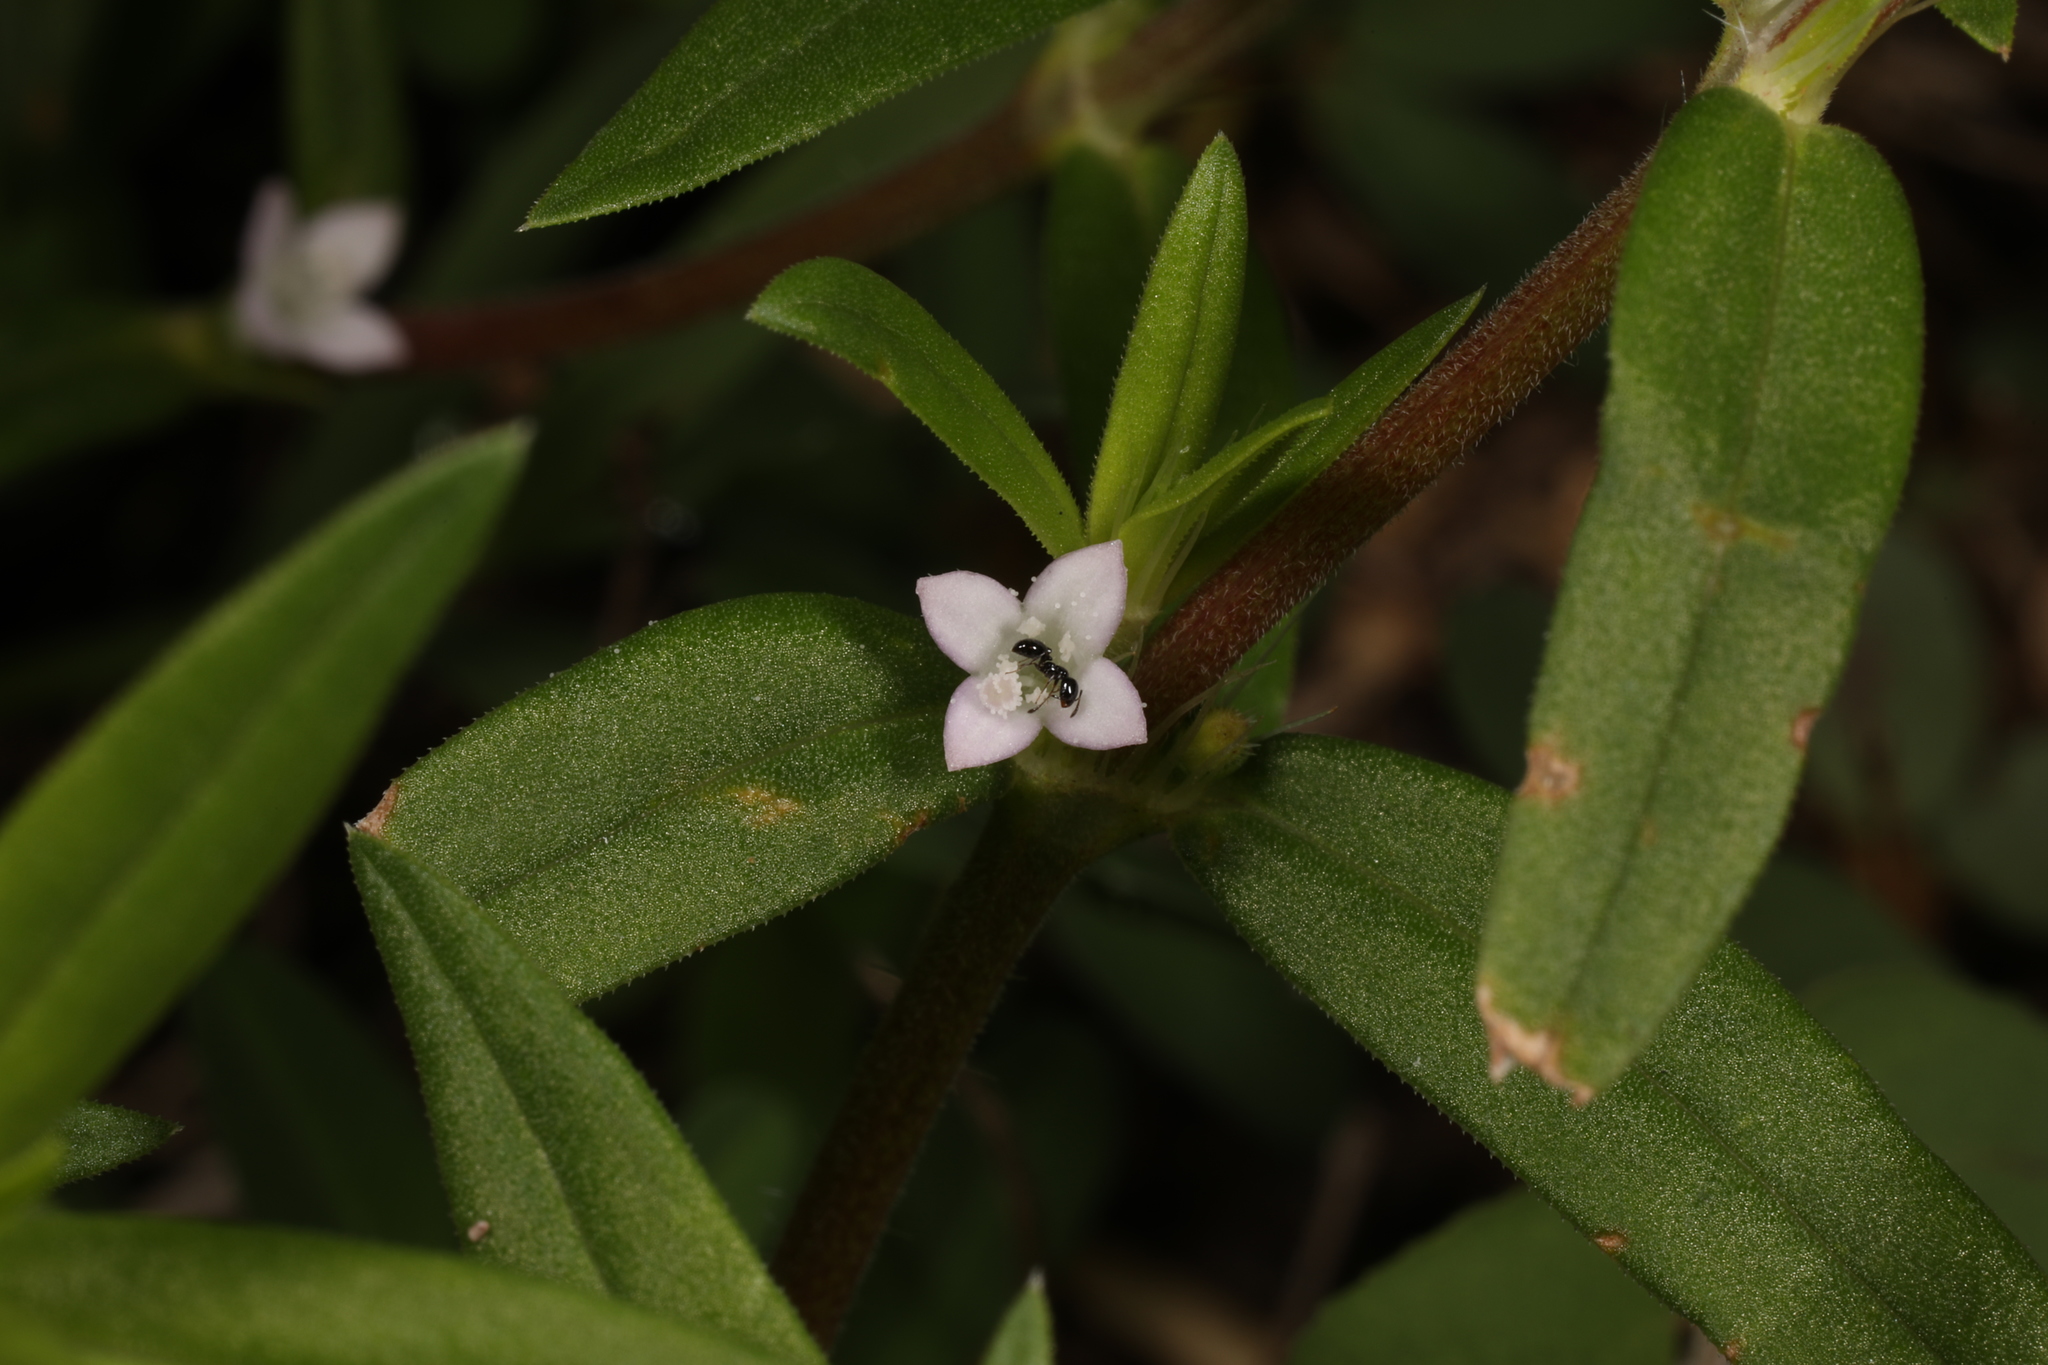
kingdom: Plantae
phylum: Tracheophyta
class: Magnoliopsida
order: Gentianales
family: Rubiaceae
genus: Hexasepalum
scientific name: Hexasepalum teres
